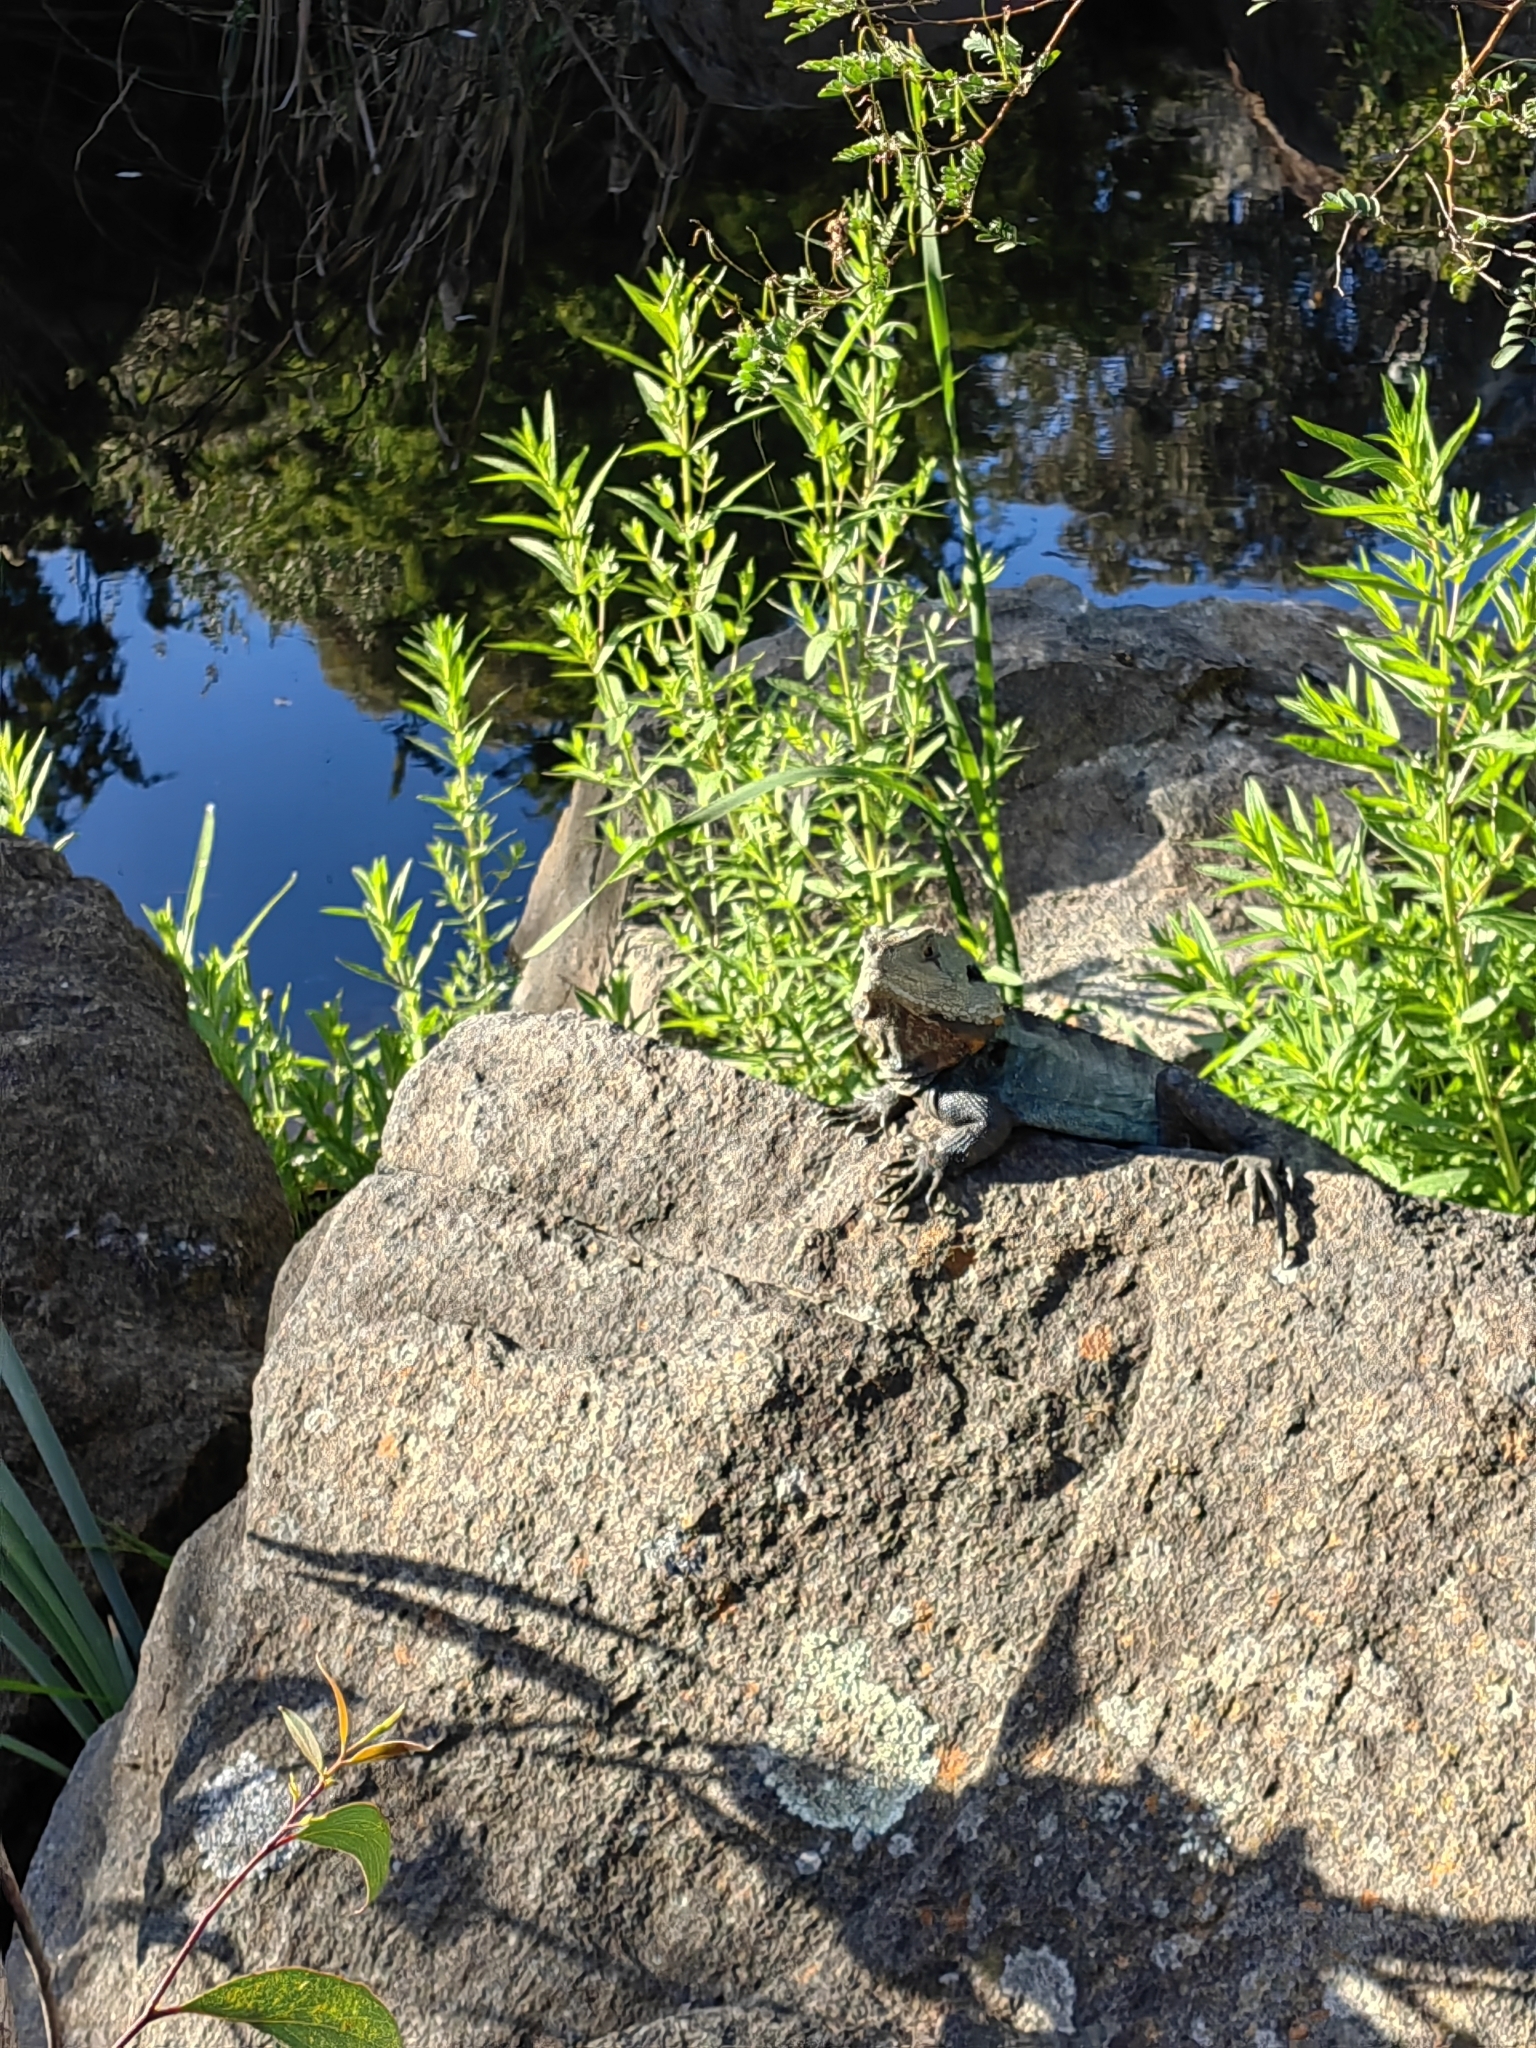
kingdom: Animalia
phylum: Chordata
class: Squamata
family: Agamidae
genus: Intellagama
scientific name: Intellagama lesueurii
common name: Eastern water dragon
